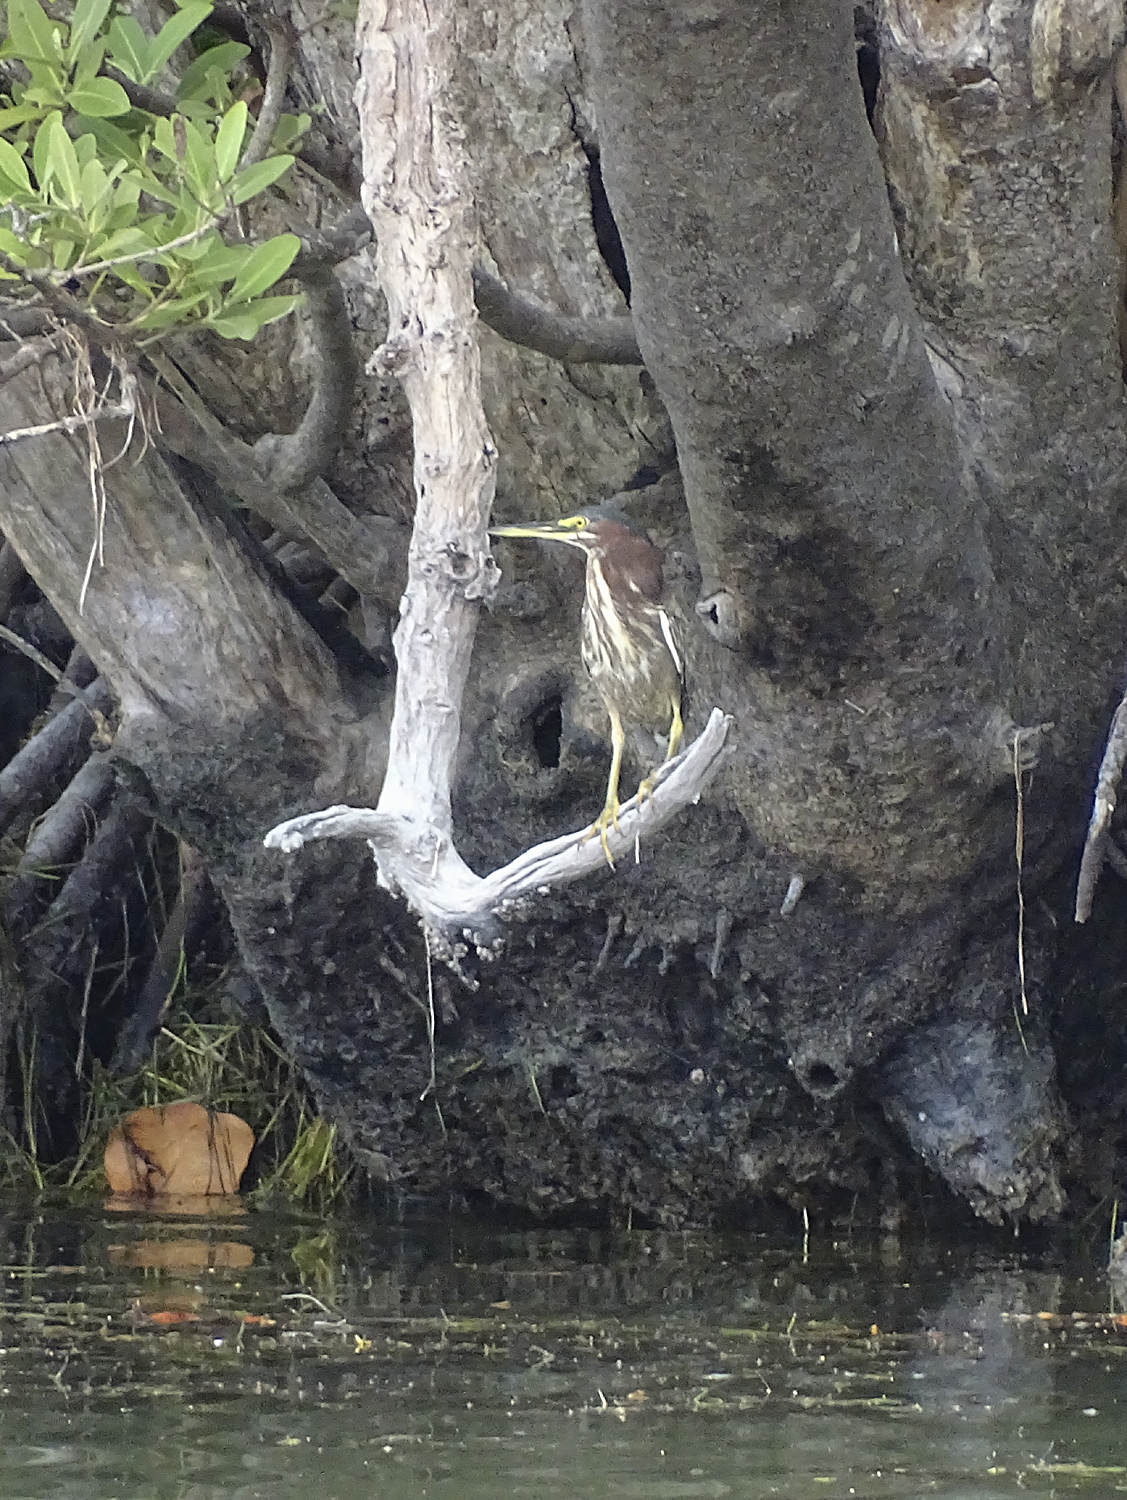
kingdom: Animalia
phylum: Chordata
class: Aves
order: Pelecaniformes
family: Ardeidae
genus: Butorides
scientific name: Butorides virescens
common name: Green heron
